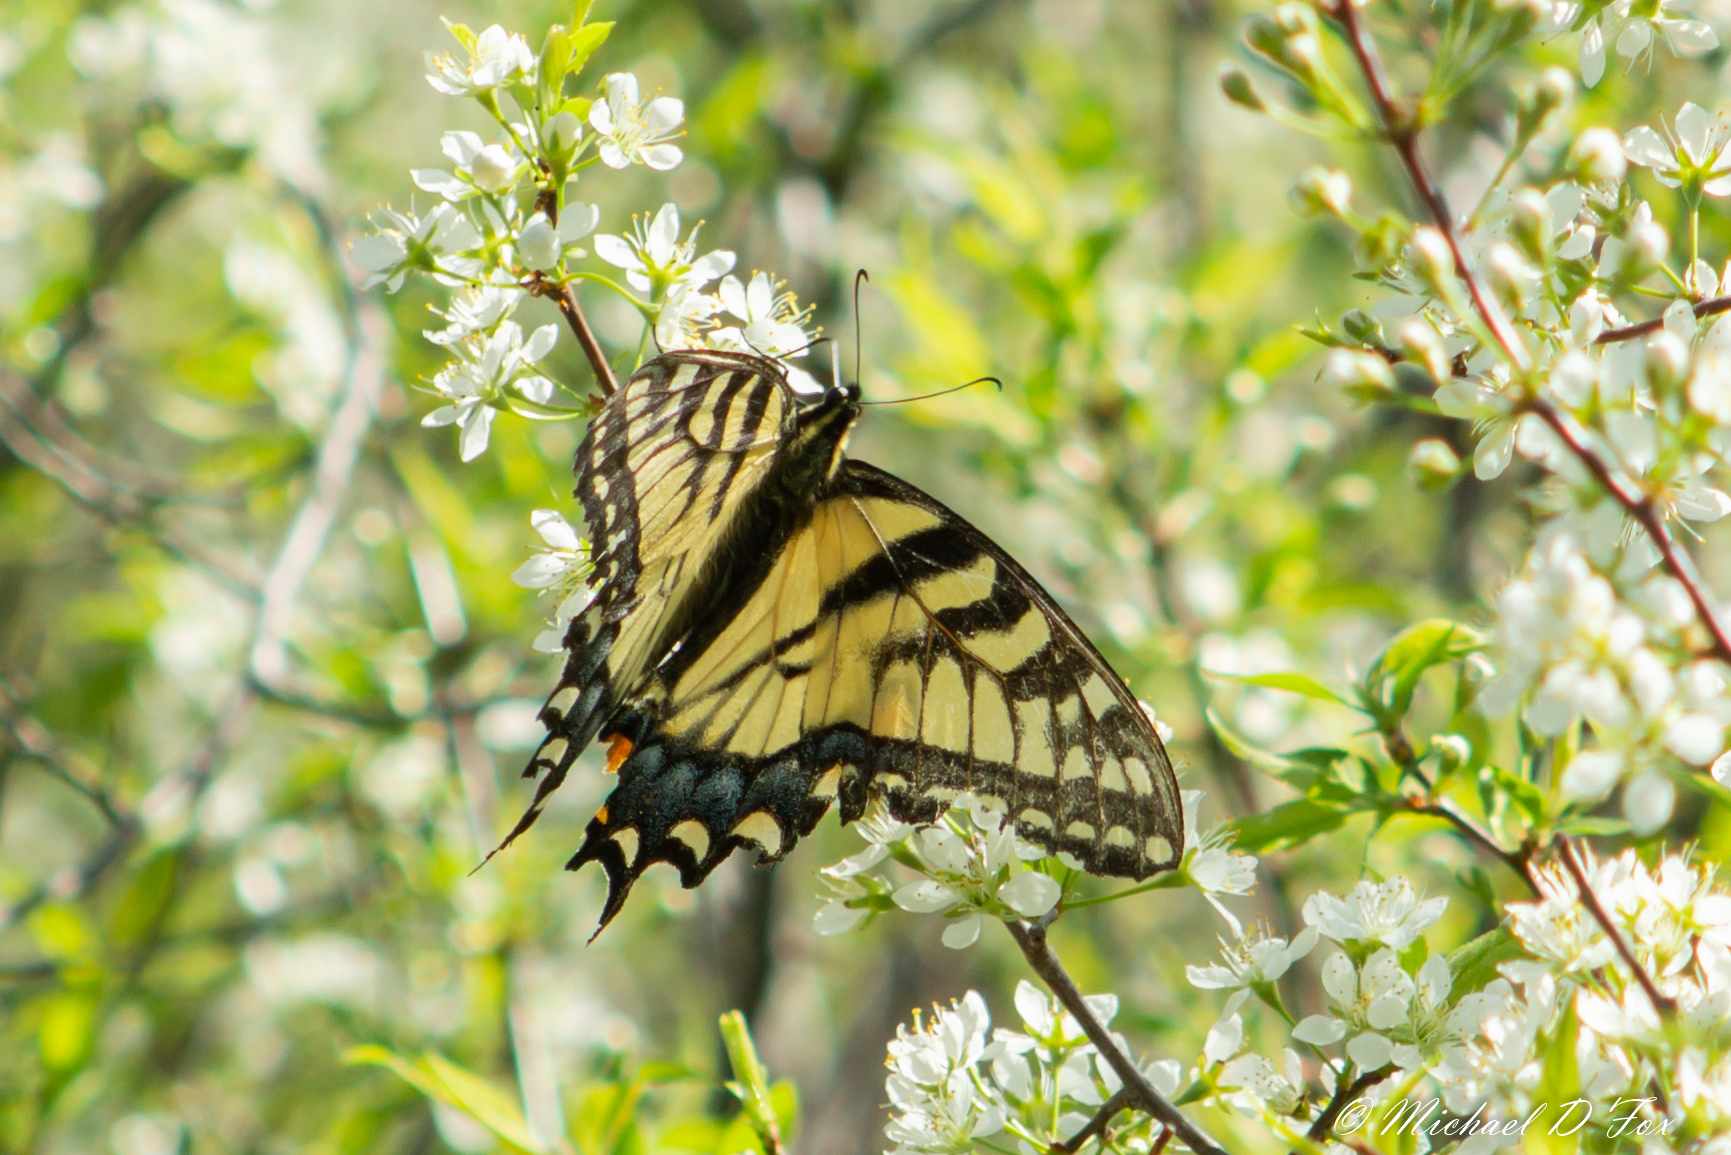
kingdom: Animalia
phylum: Arthropoda
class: Insecta
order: Lepidoptera
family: Papilionidae
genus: Papilio
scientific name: Papilio glaucus
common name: Tiger swallowtail
